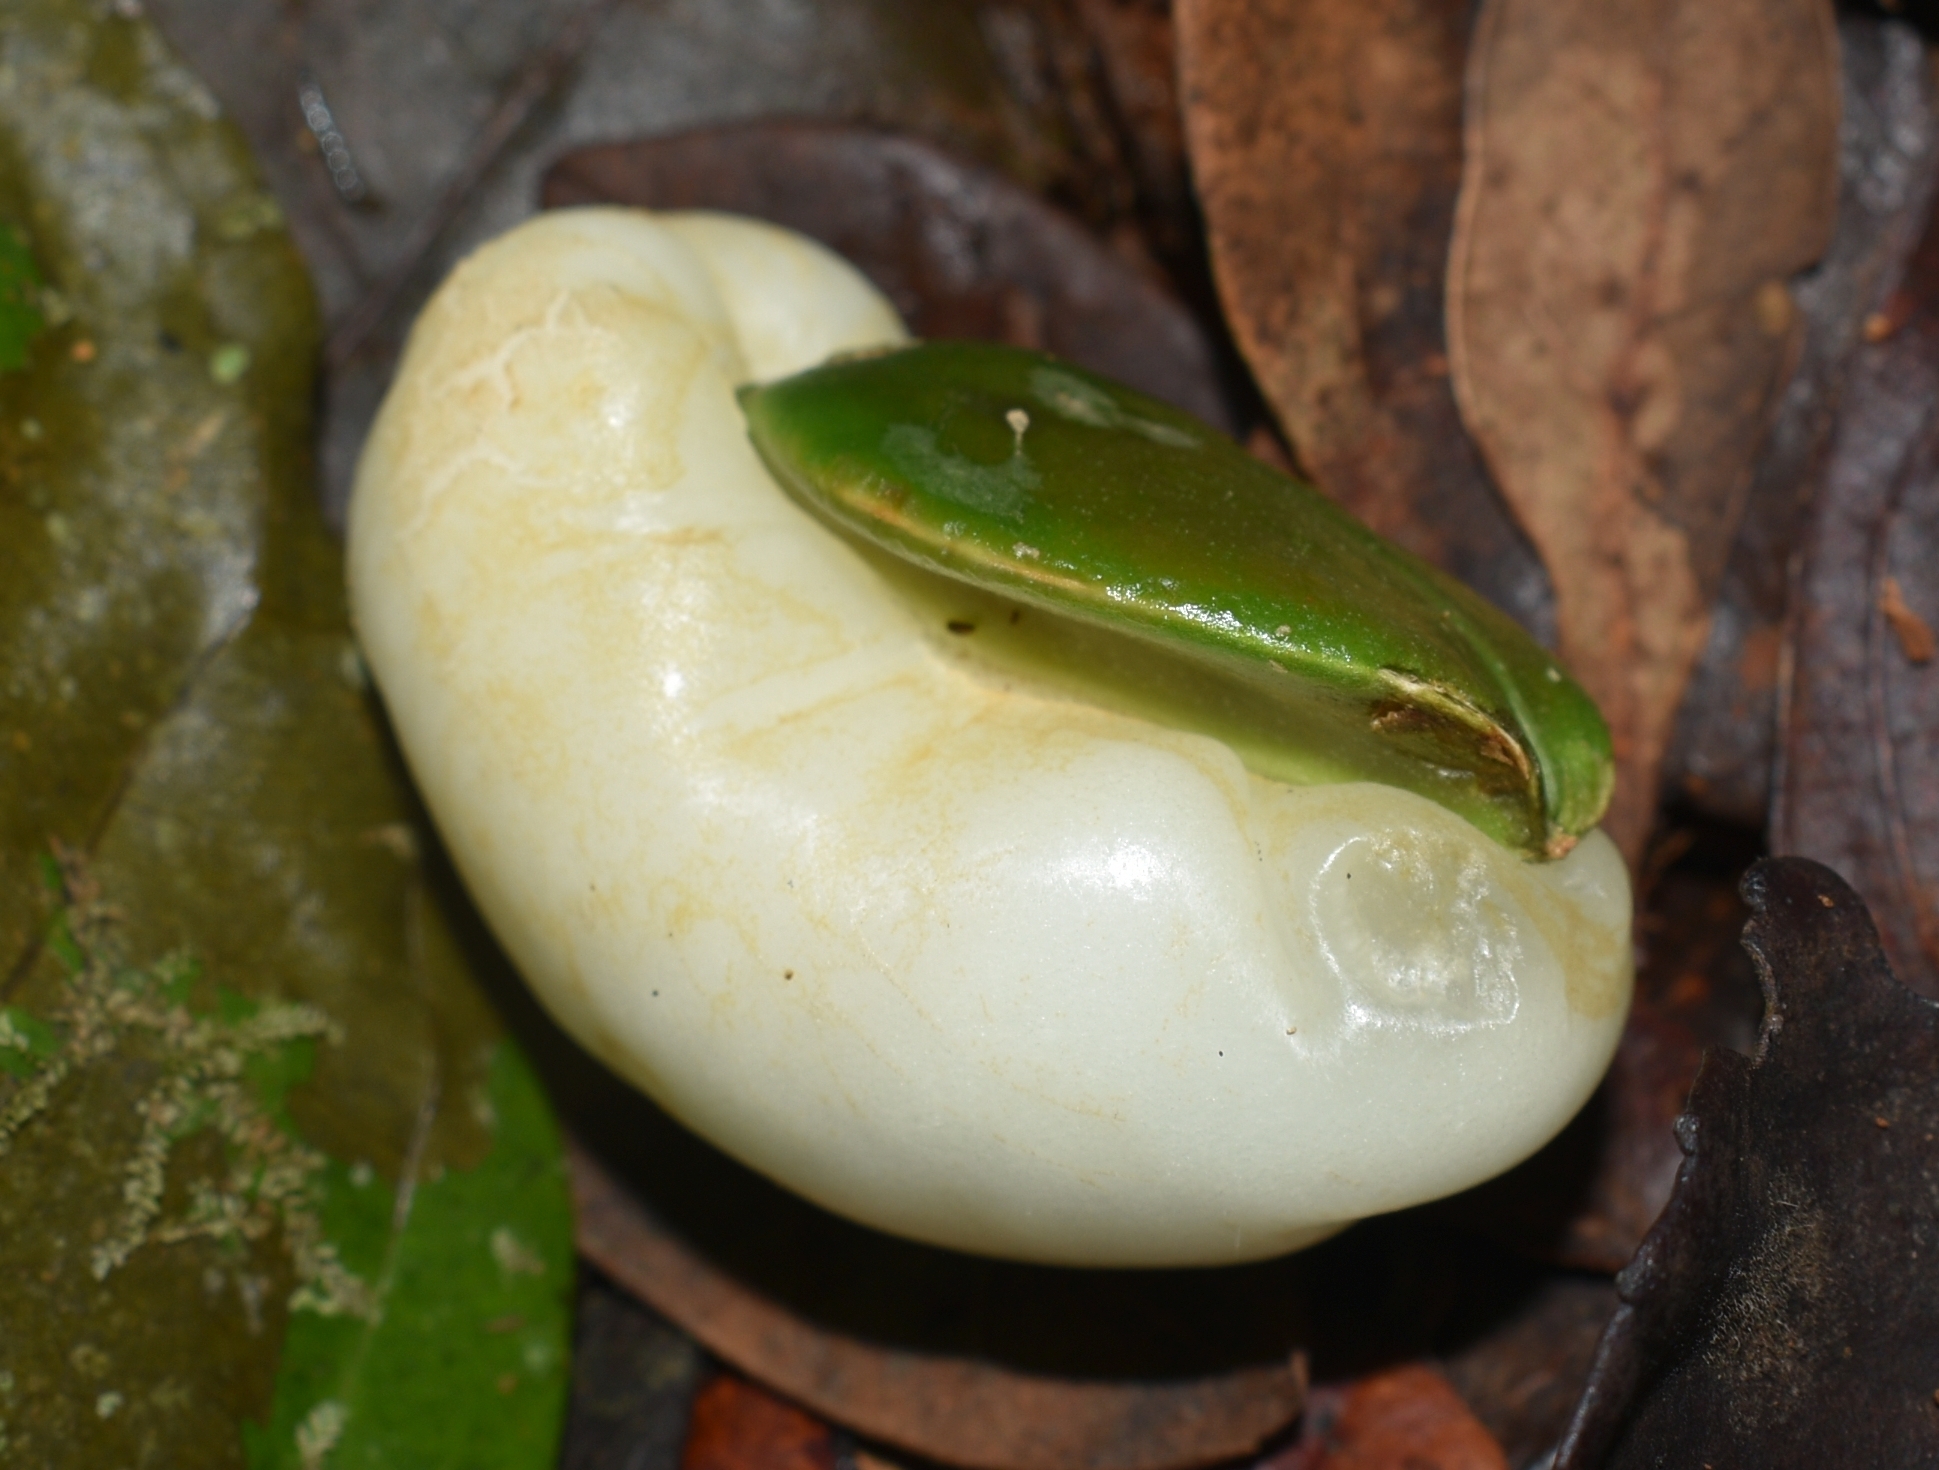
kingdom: Plantae
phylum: Tracheophyta
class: Magnoliopsida
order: Cardiopteridales
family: Stemonuraceae
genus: Irvingbaileya
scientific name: Irvingbaileya australis
